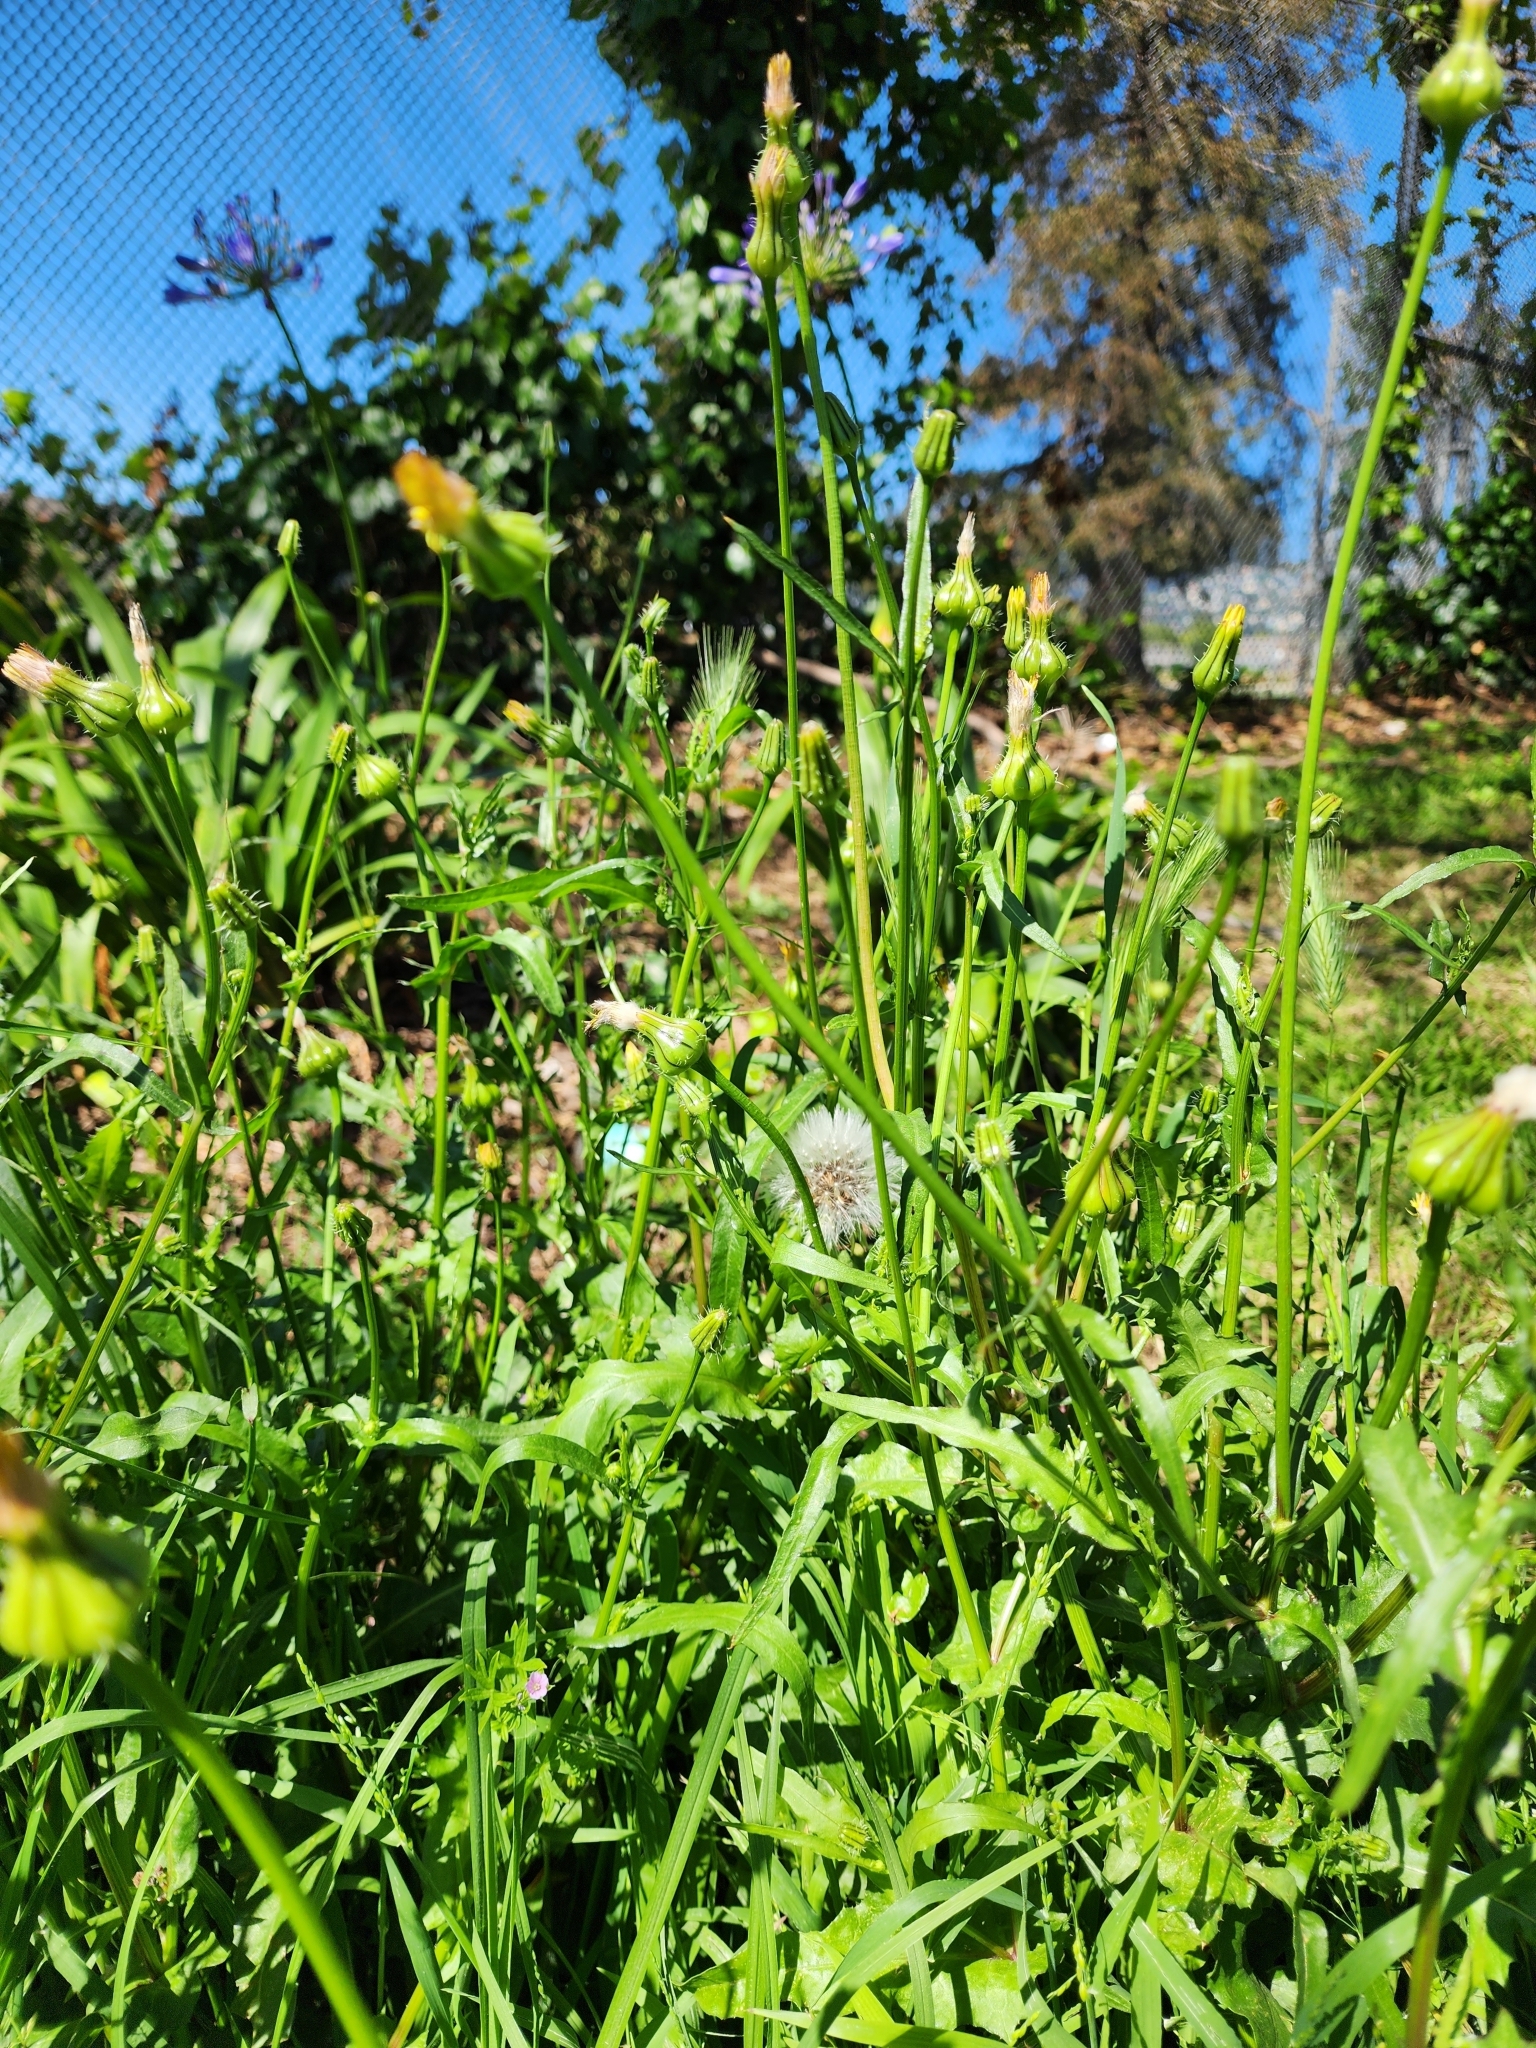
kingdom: Plantae
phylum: Tracheophyta
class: Magnoliopsida
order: Asterales
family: Asteraceae
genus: Urospermum
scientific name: Urospermum picroides
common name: False hawkbit
